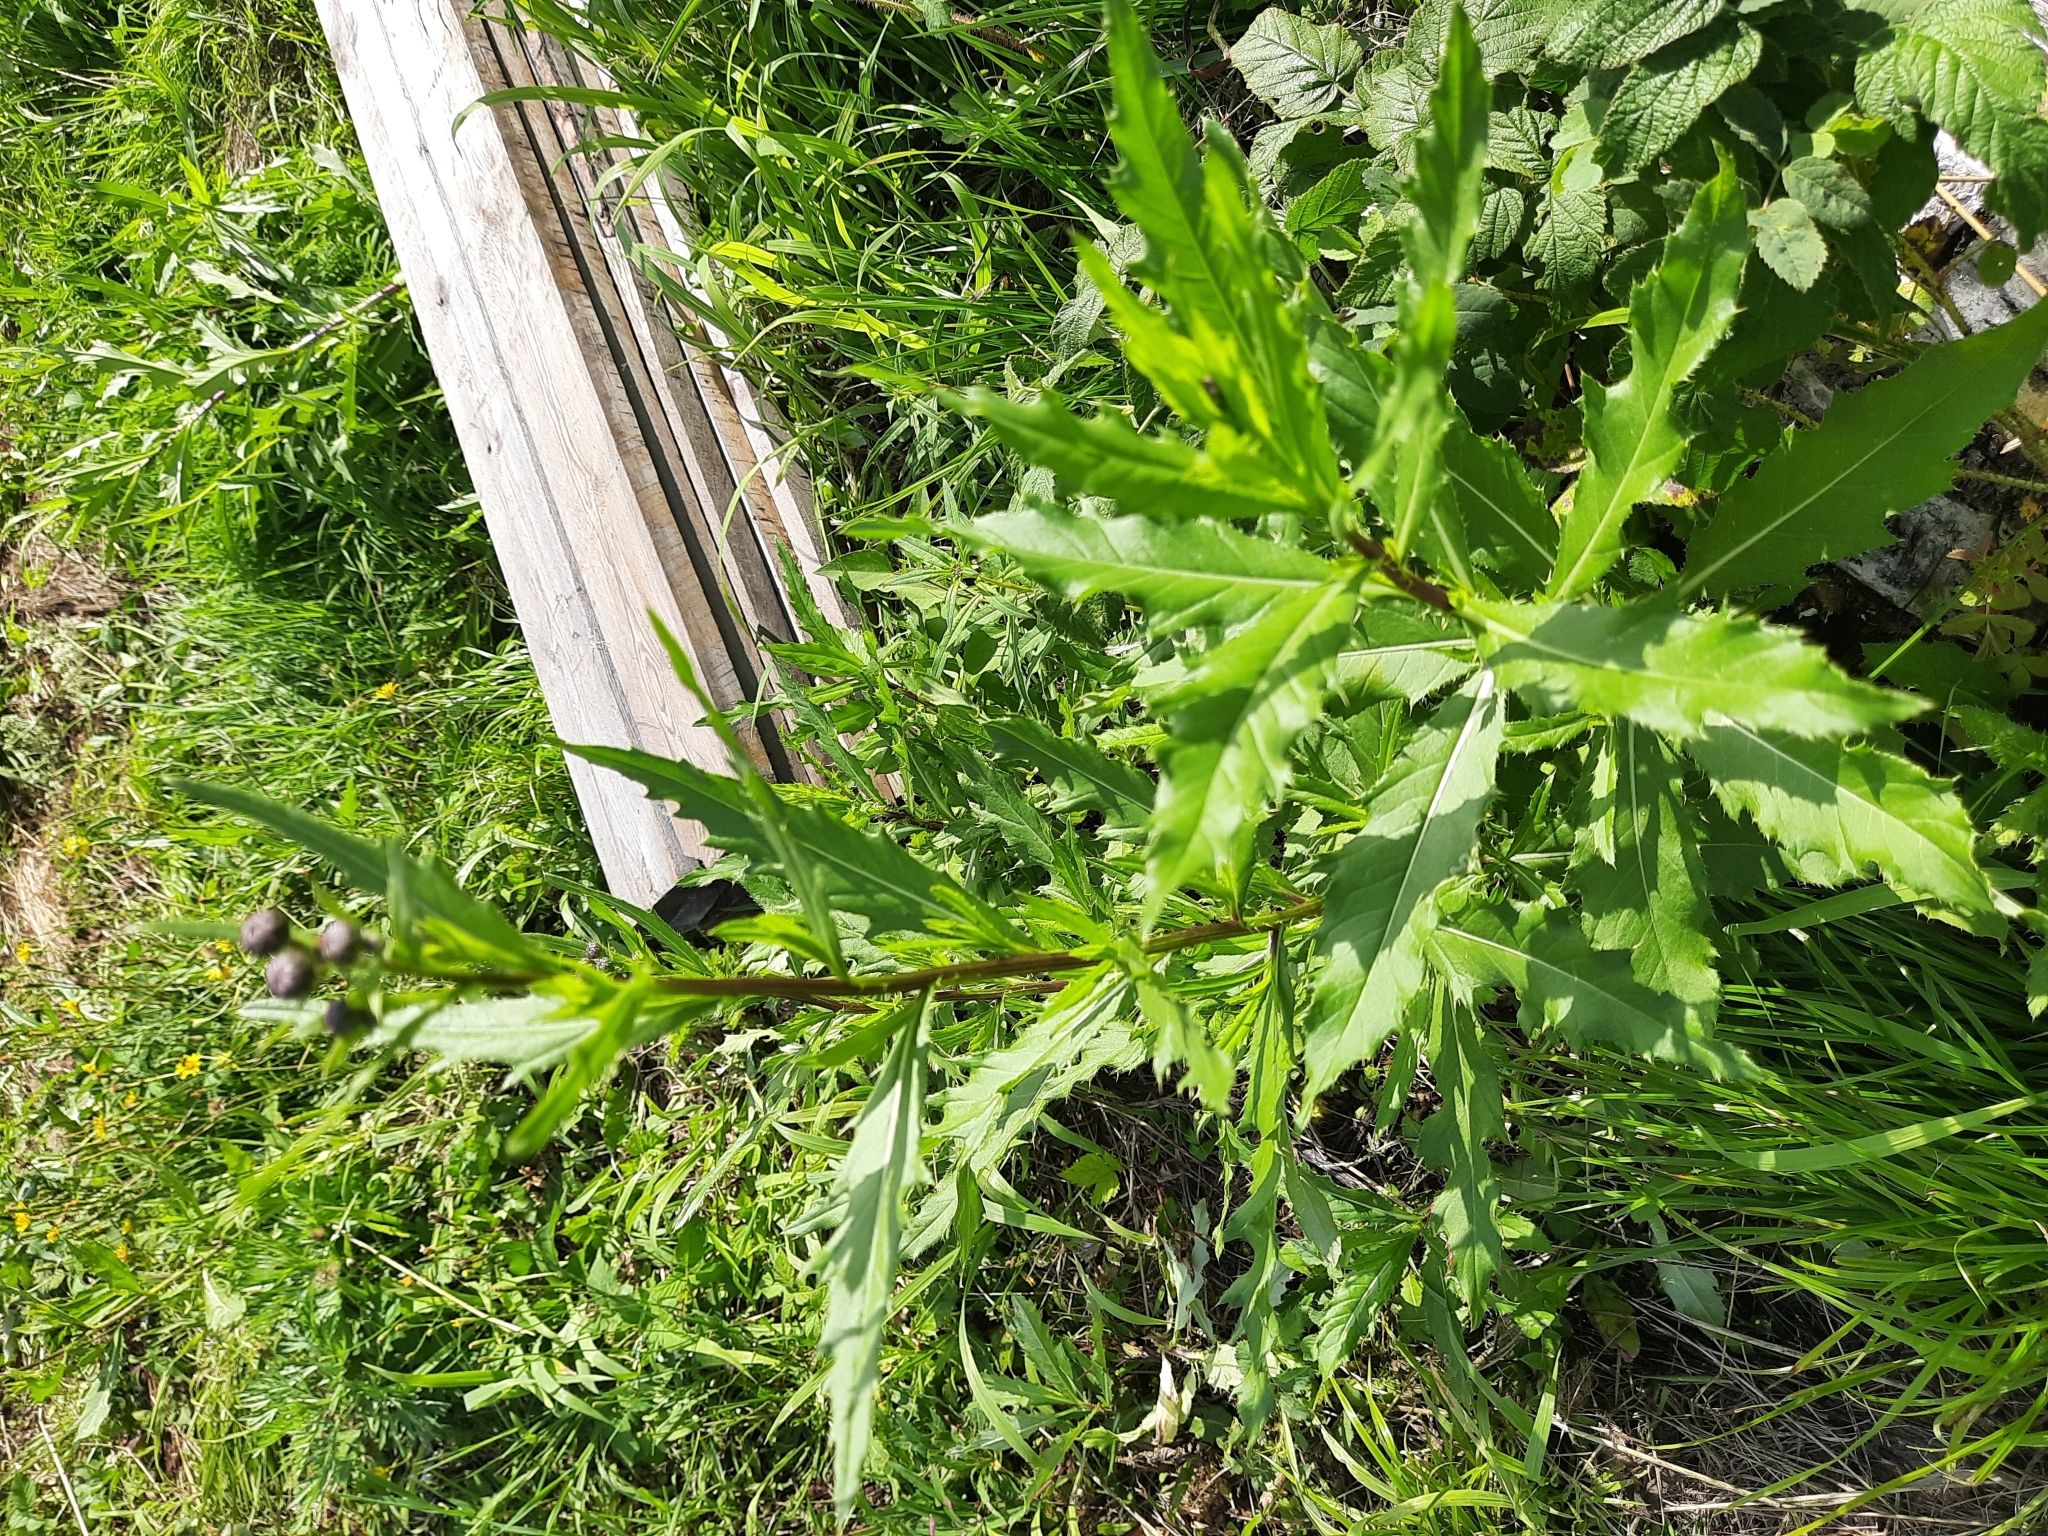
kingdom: Plantae
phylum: Tracheophyta
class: Magnoliopsida
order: Asterales
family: Asteraceae
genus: Cirsium
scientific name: Cirsium arvense
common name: Creeping thistle
